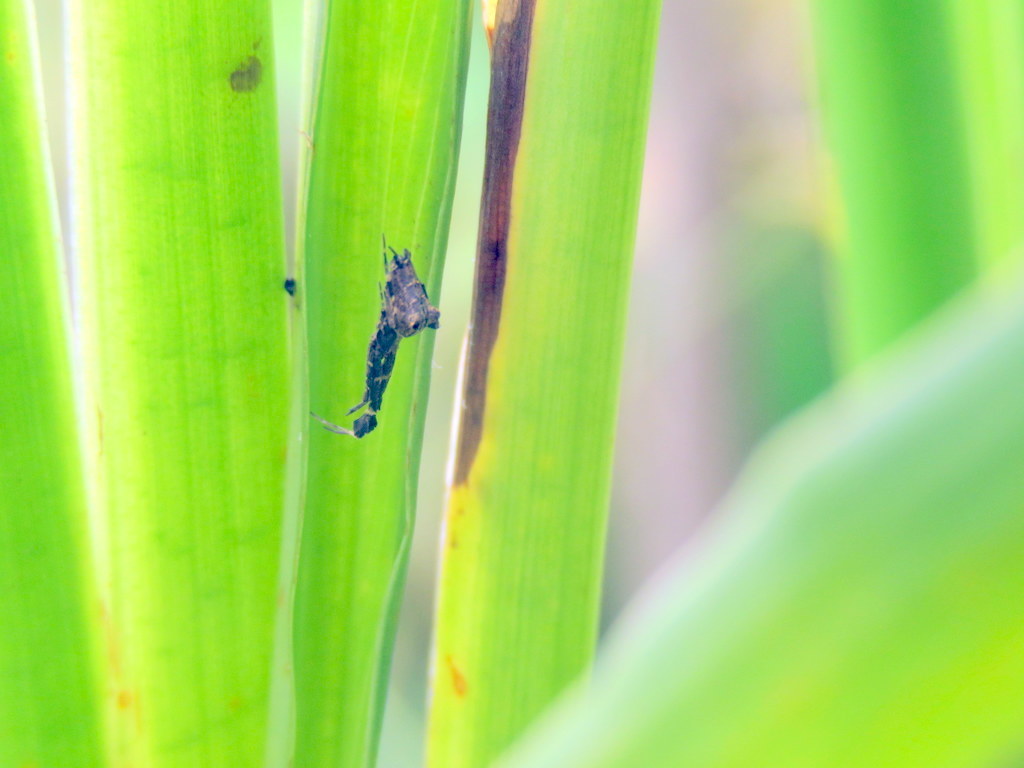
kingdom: Animalia
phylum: Arthropoda
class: Arachnida
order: Araneae
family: Uloboridae
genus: Uloborus
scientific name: Uloborus plumipes
